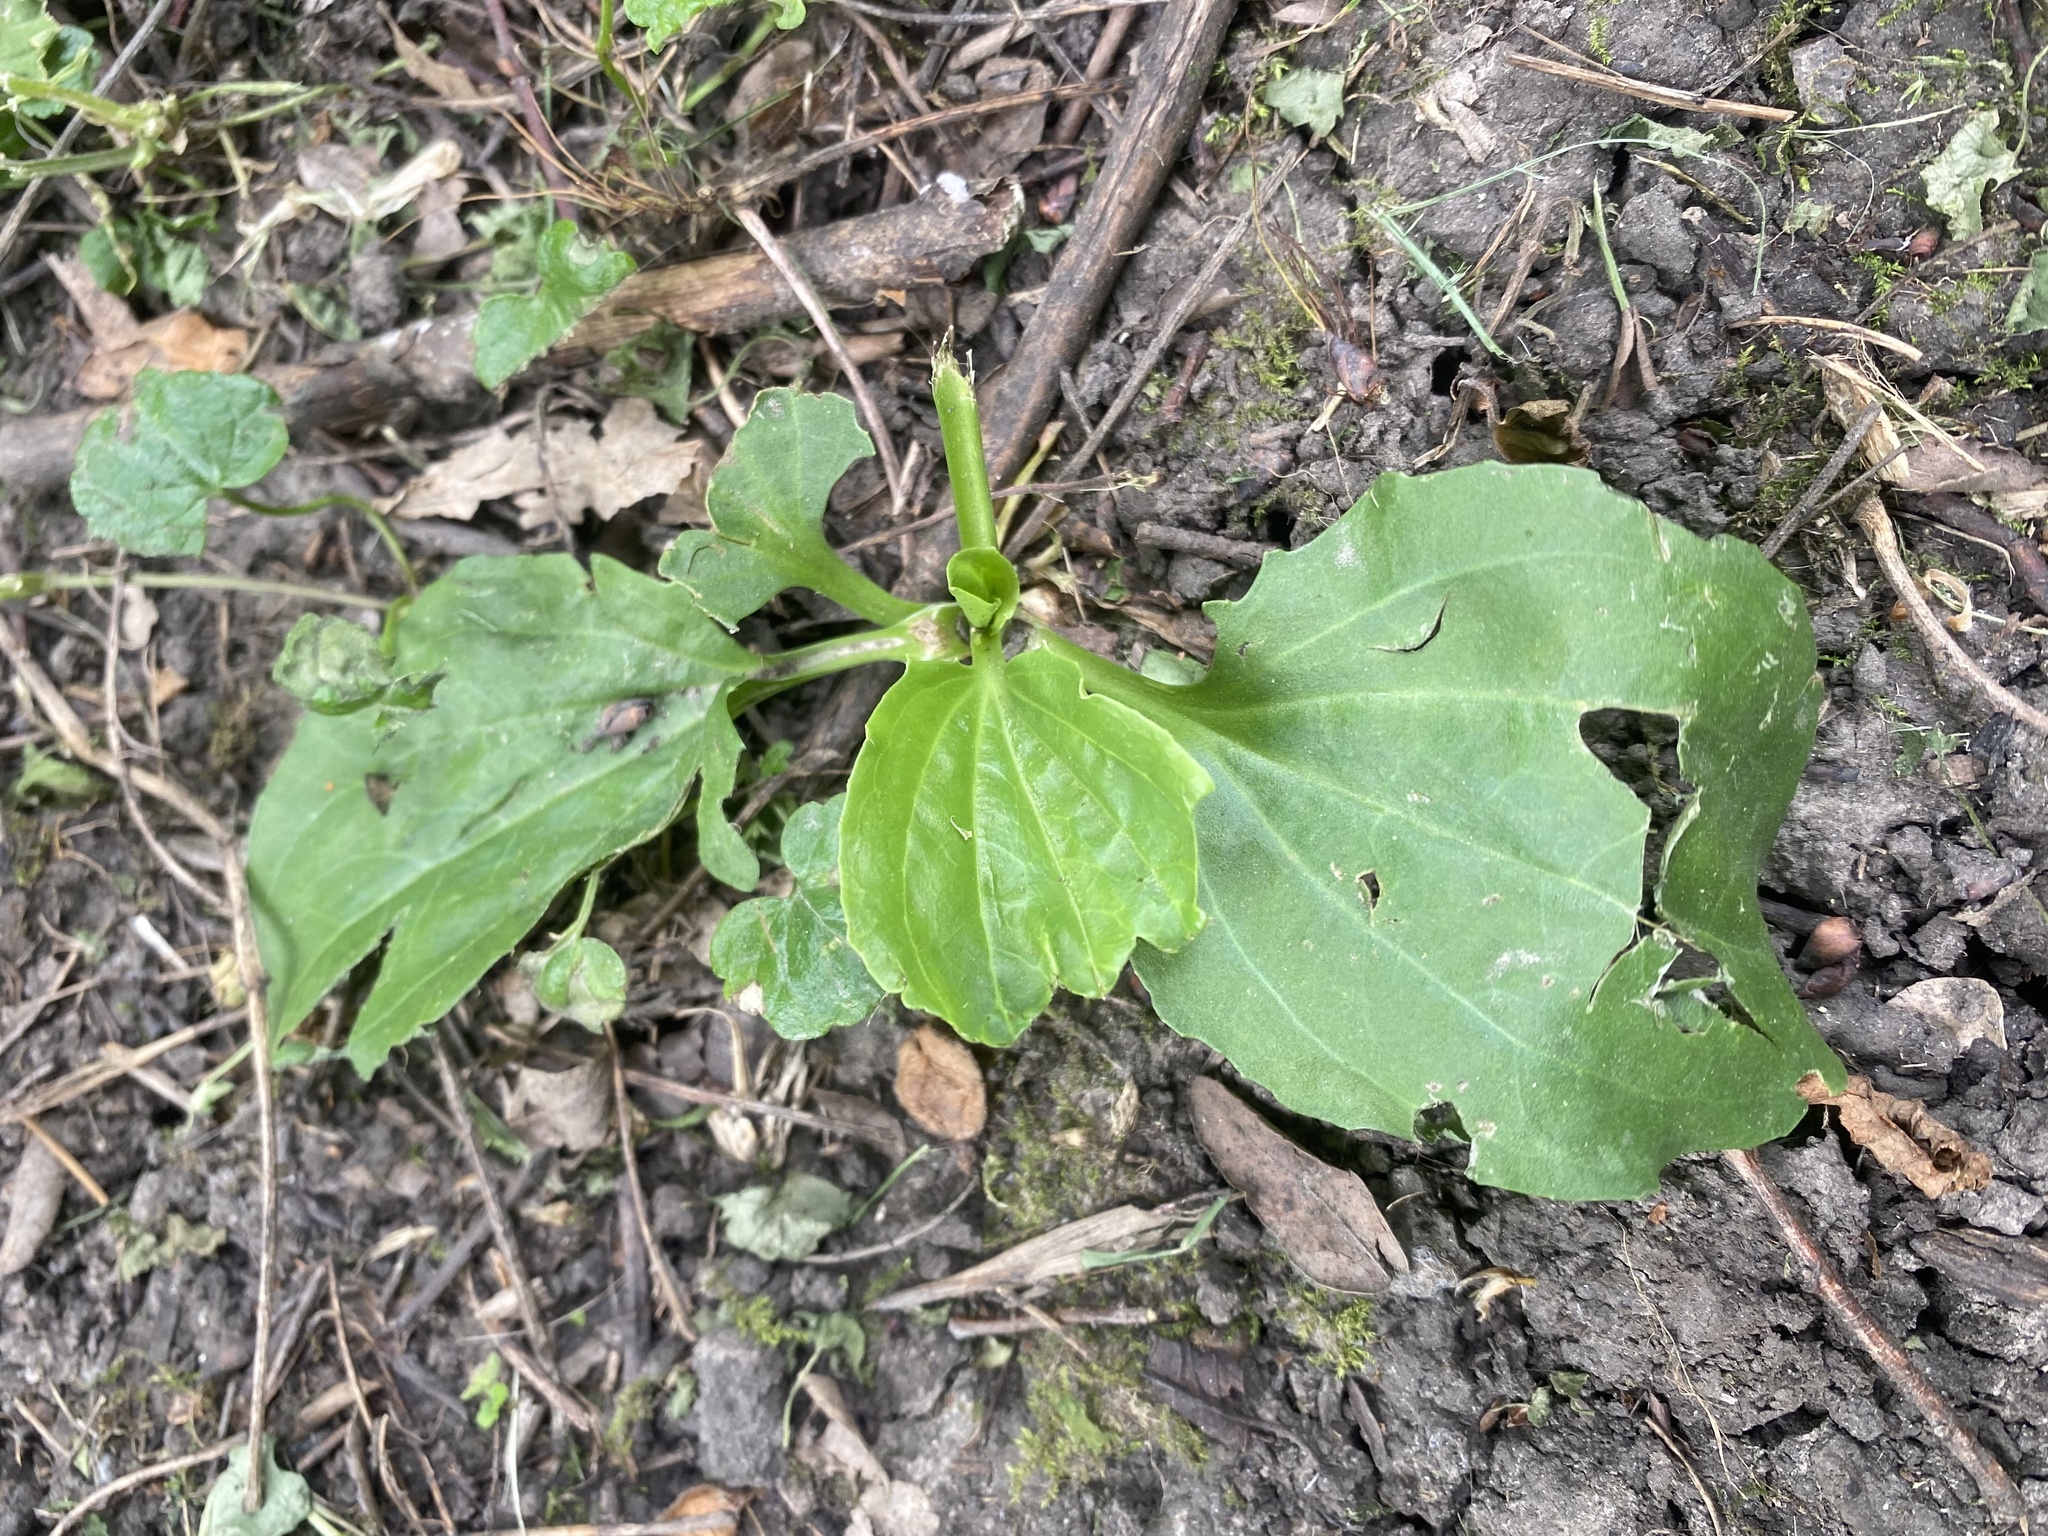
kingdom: Plantae
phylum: Tracheophyta
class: Magnoliopsida
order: Lamiales
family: Plantaginaceae
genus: Plantago
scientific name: Plantago major
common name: Common plantain
